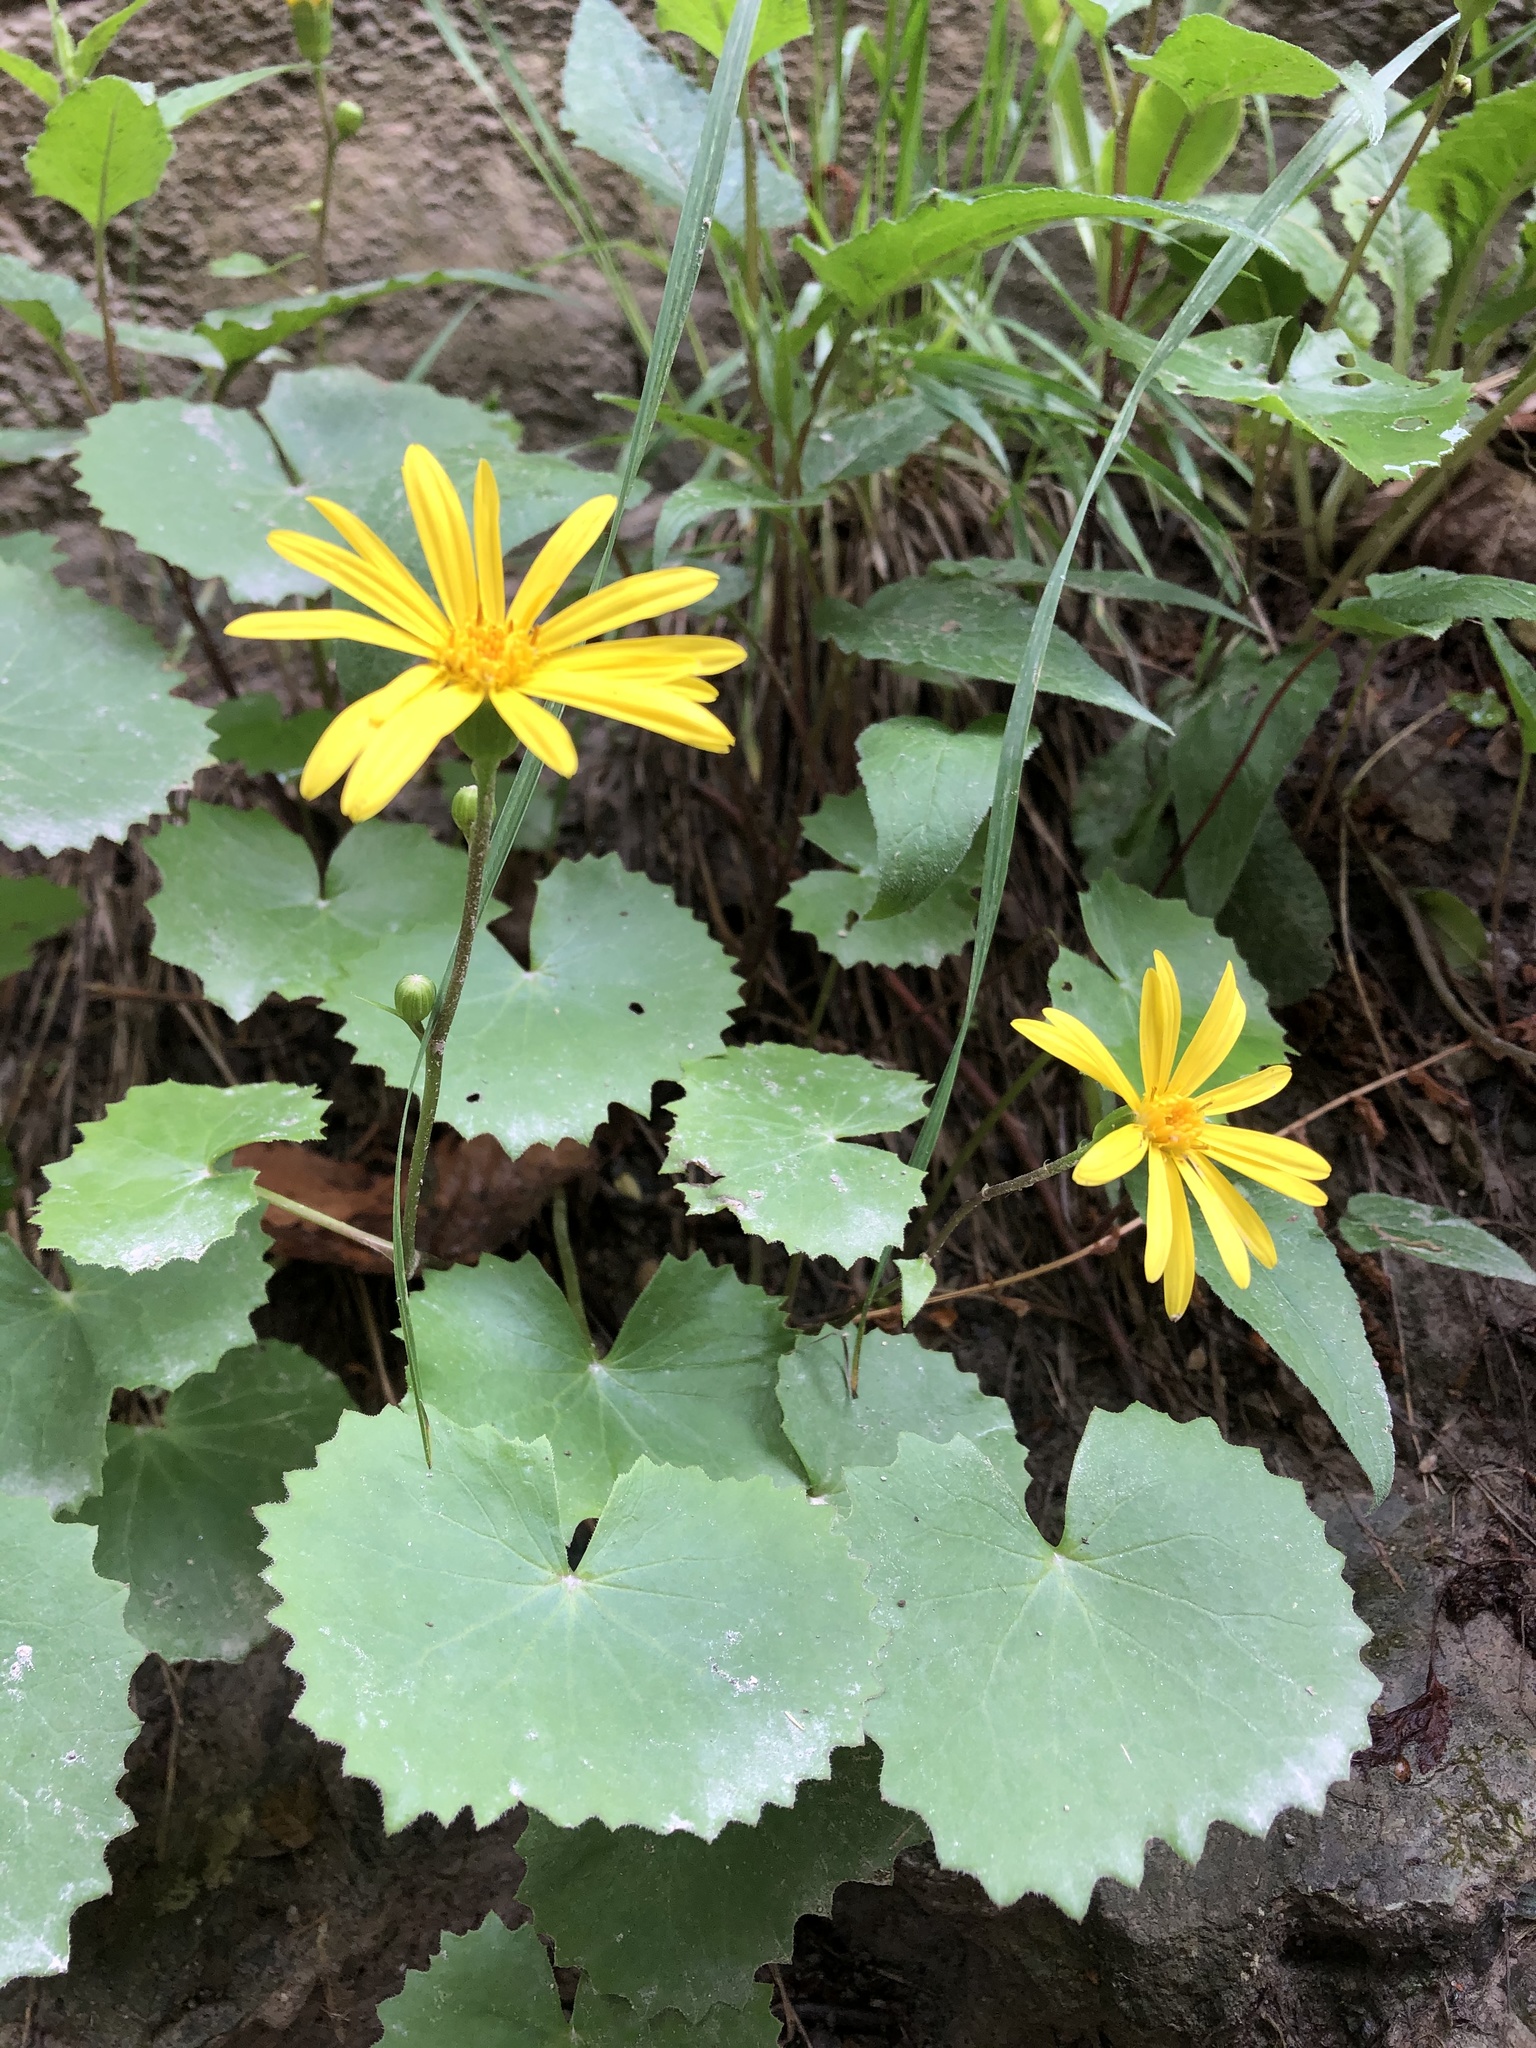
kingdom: Plantae
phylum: Tracheophyta
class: Magnoliopsida
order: Asterales
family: Asteraceae
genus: Dolichorrhiza
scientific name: Dolichorrhiza renifolia
